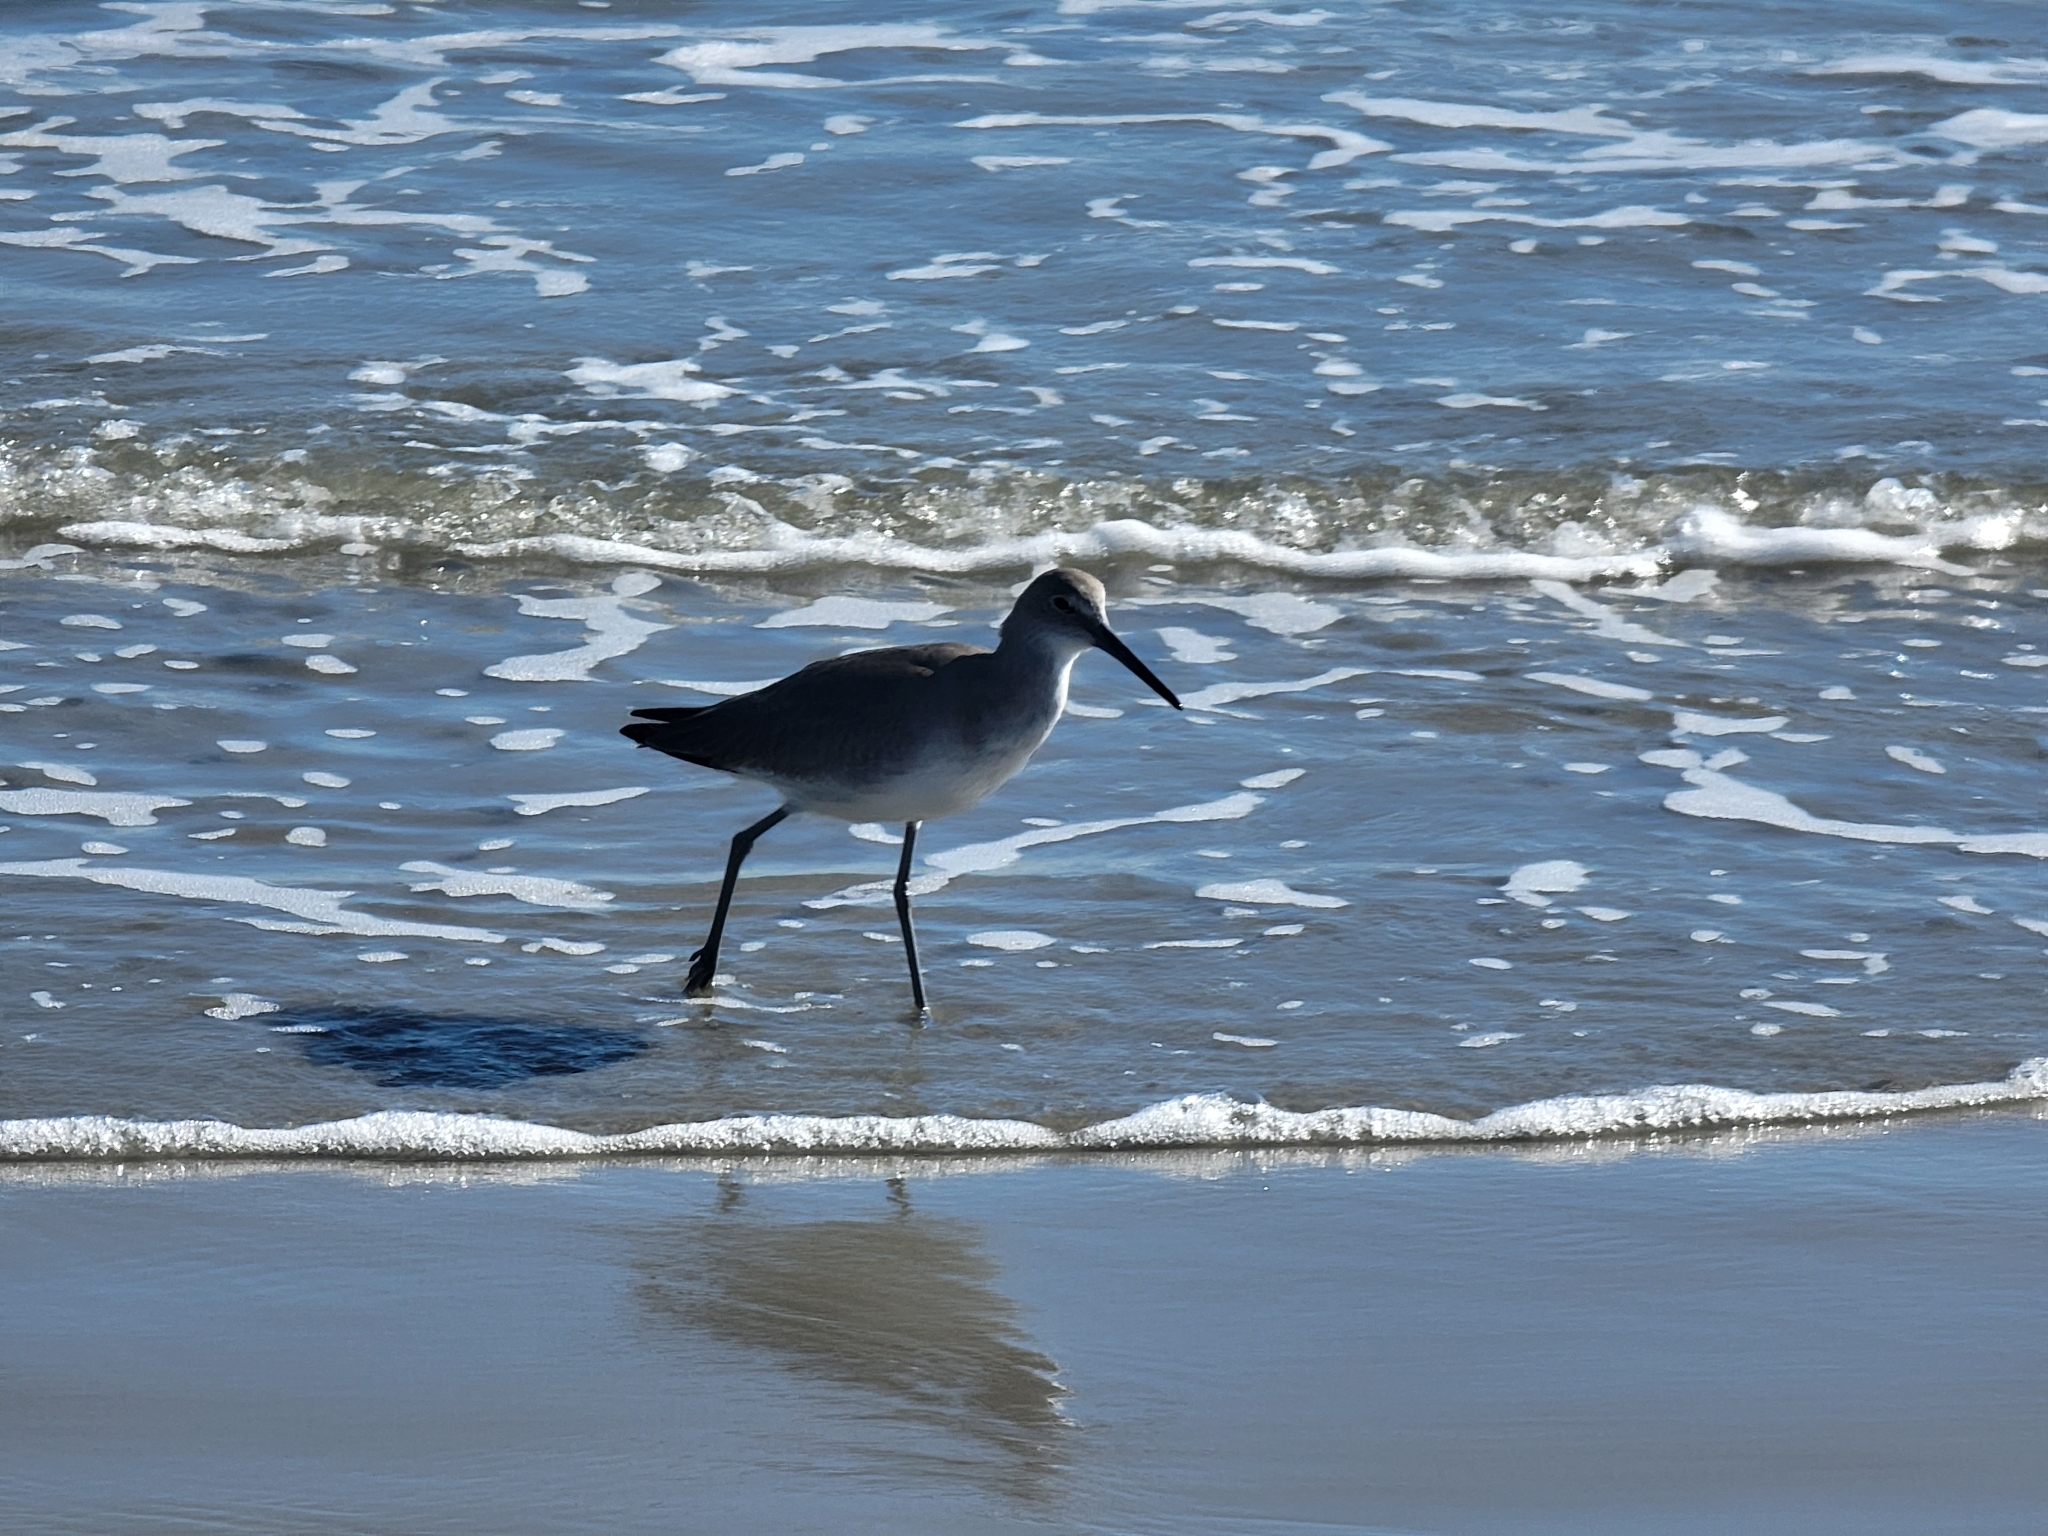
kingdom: Animalia
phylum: Chordata
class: Aves
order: Charadriiformes
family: Scolopacidae
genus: Tringa
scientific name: Tringa semipalmata
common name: Willet
